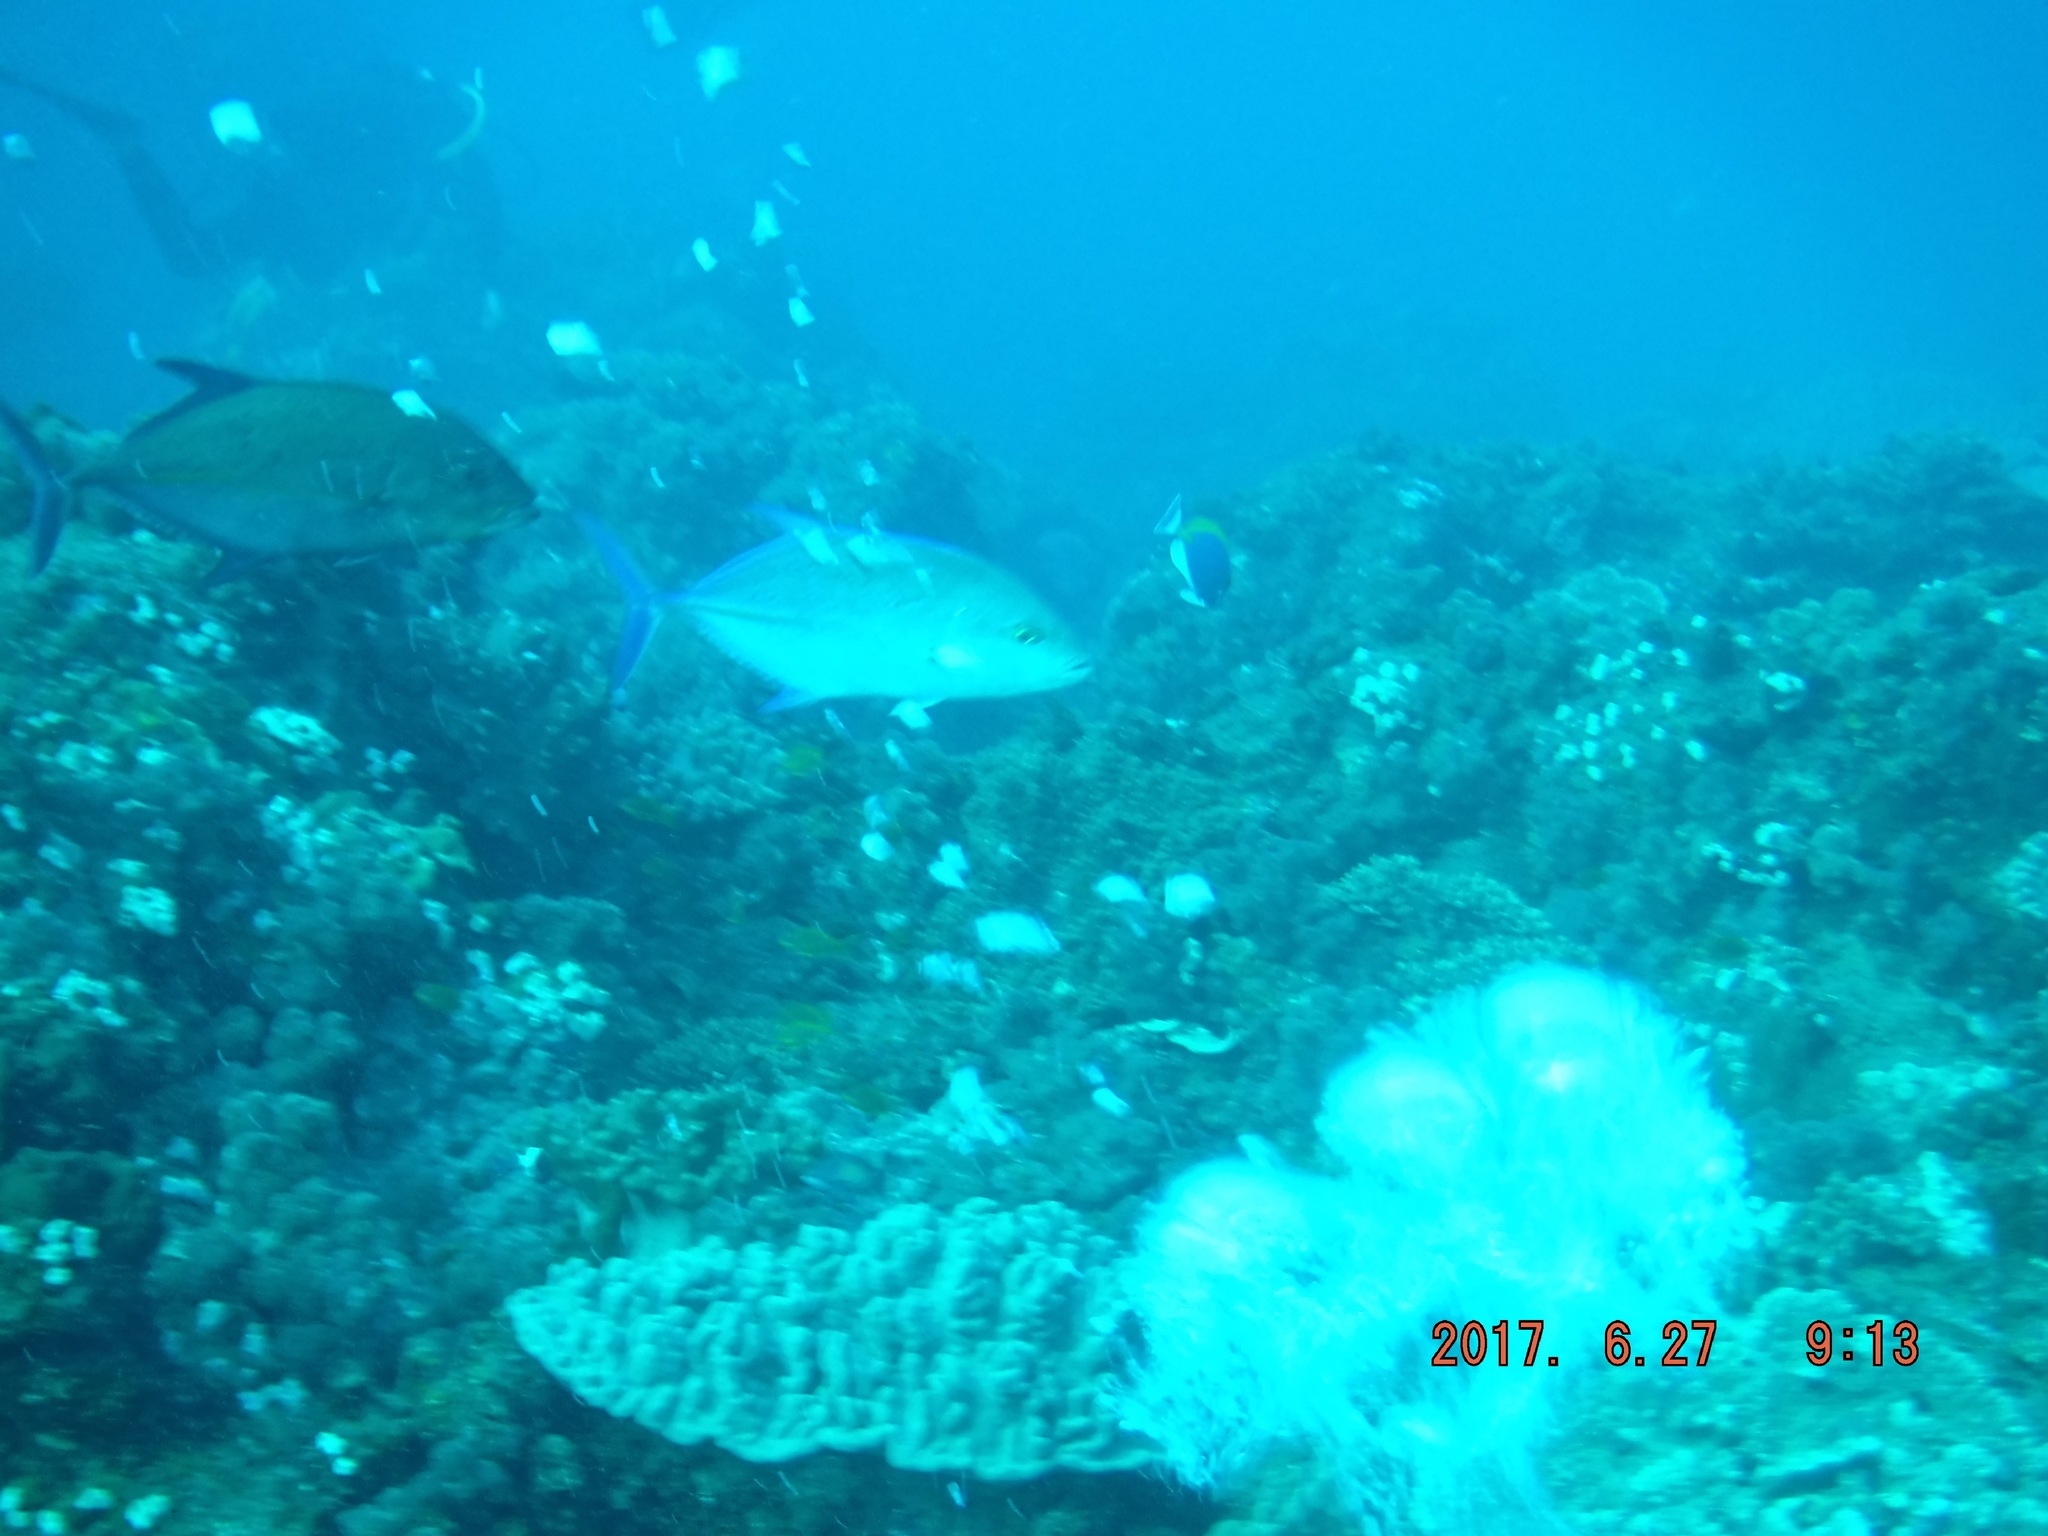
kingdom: Animalia
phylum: Chordata
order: Perciformes
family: Carangidae
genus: Caranx
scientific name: Caranx melampygus
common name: Bluefin trevally
